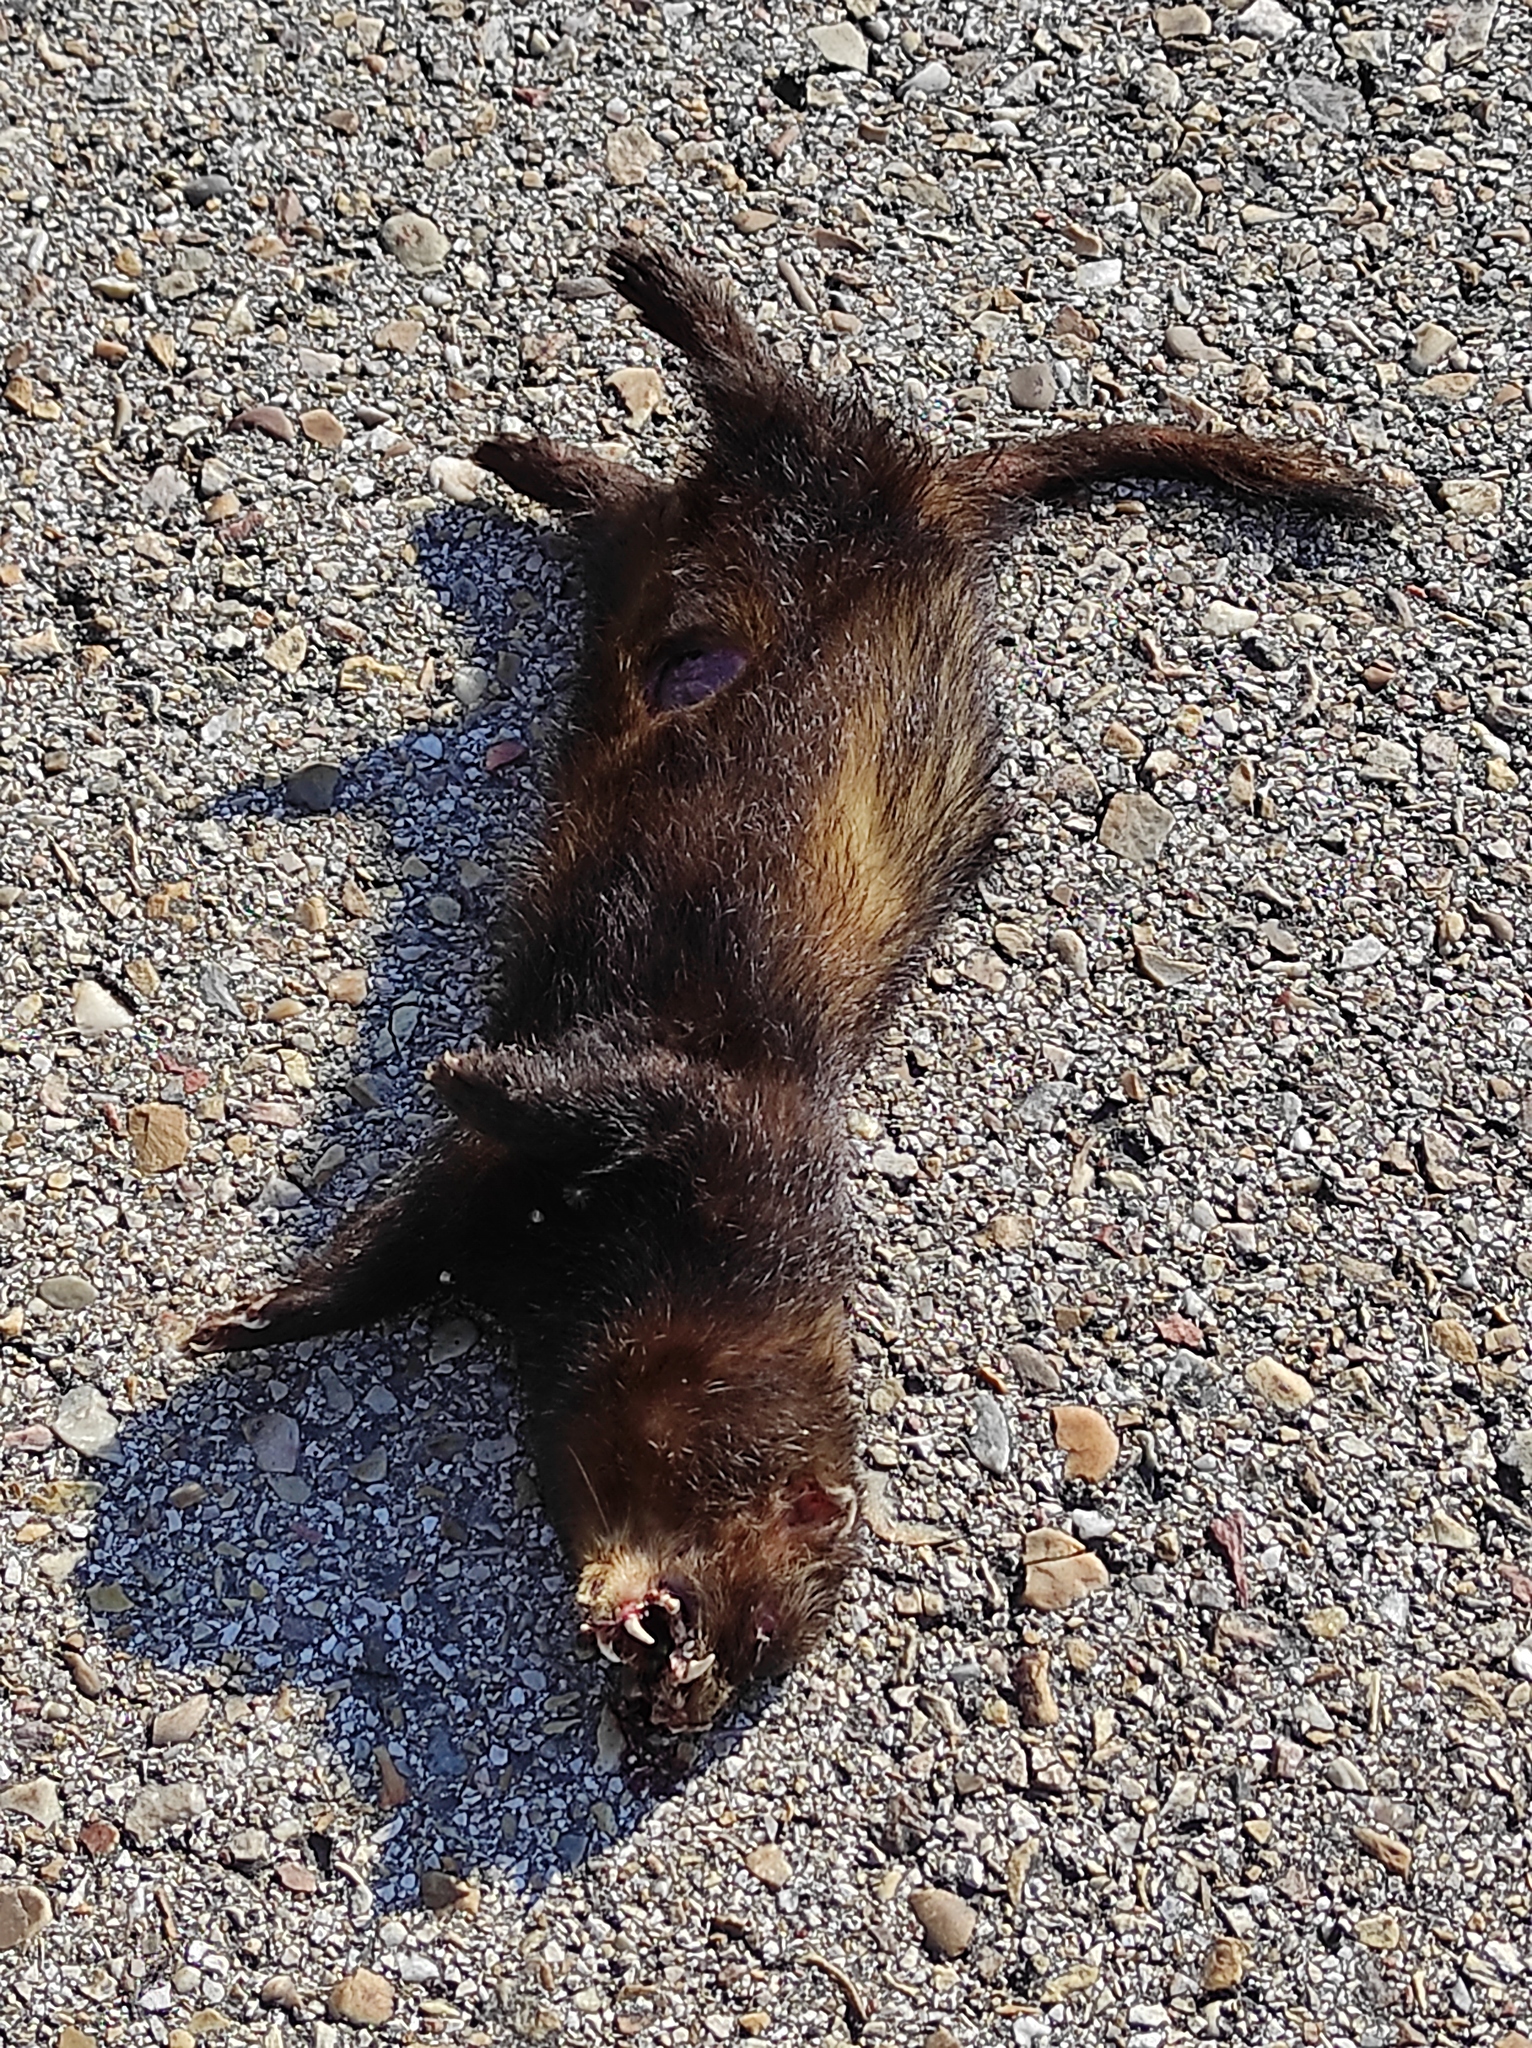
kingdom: Animalia
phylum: Chordata
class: Mammalia
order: Carnivora
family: Mustelidae
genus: Mustela
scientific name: Mustela putorius
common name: European polecat
